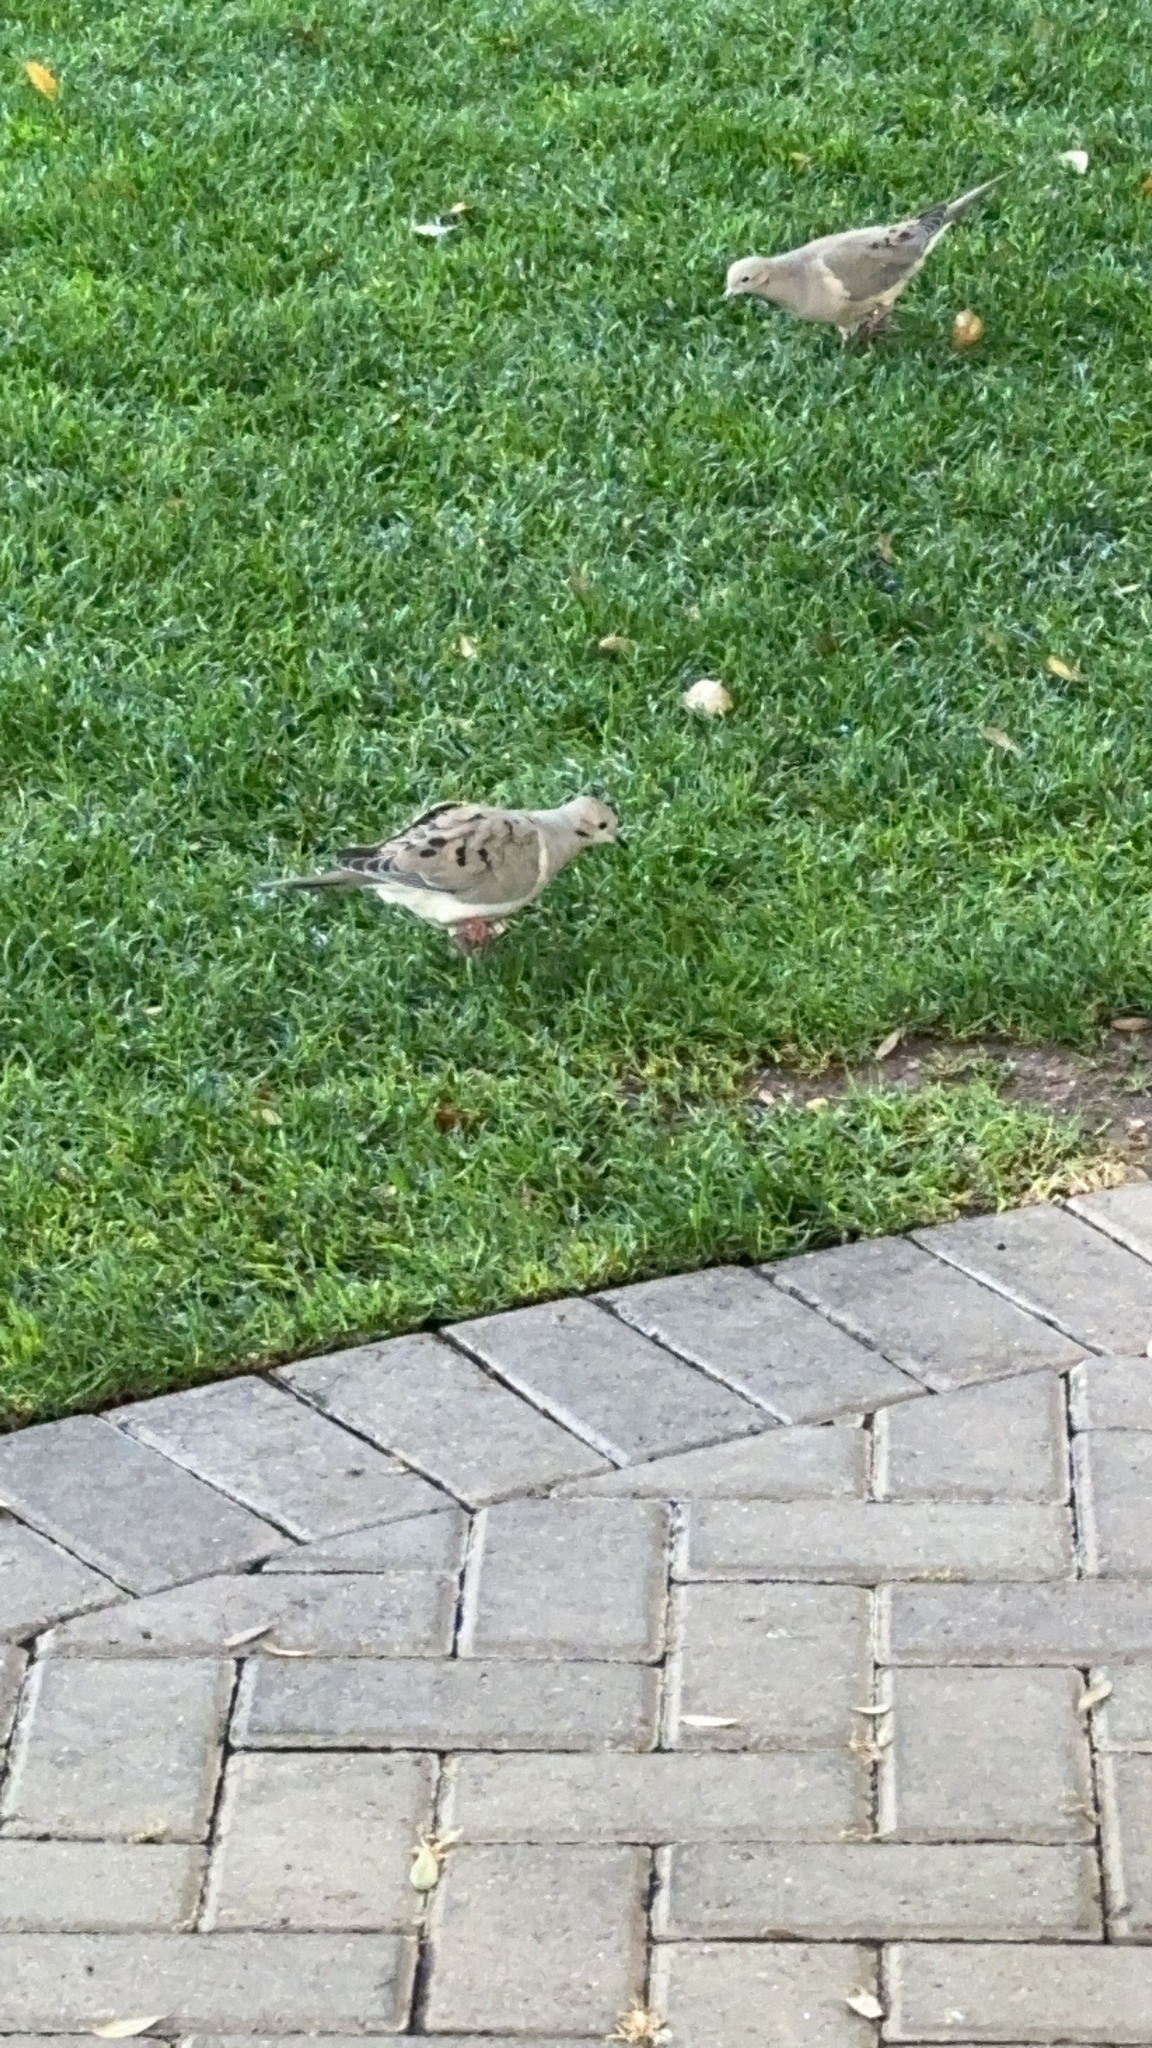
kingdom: Animalia
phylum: Chordata
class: Aves
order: Columbiformes
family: Columbidae
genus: Zenaida
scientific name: Zenaida macroura
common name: Mourning dove
